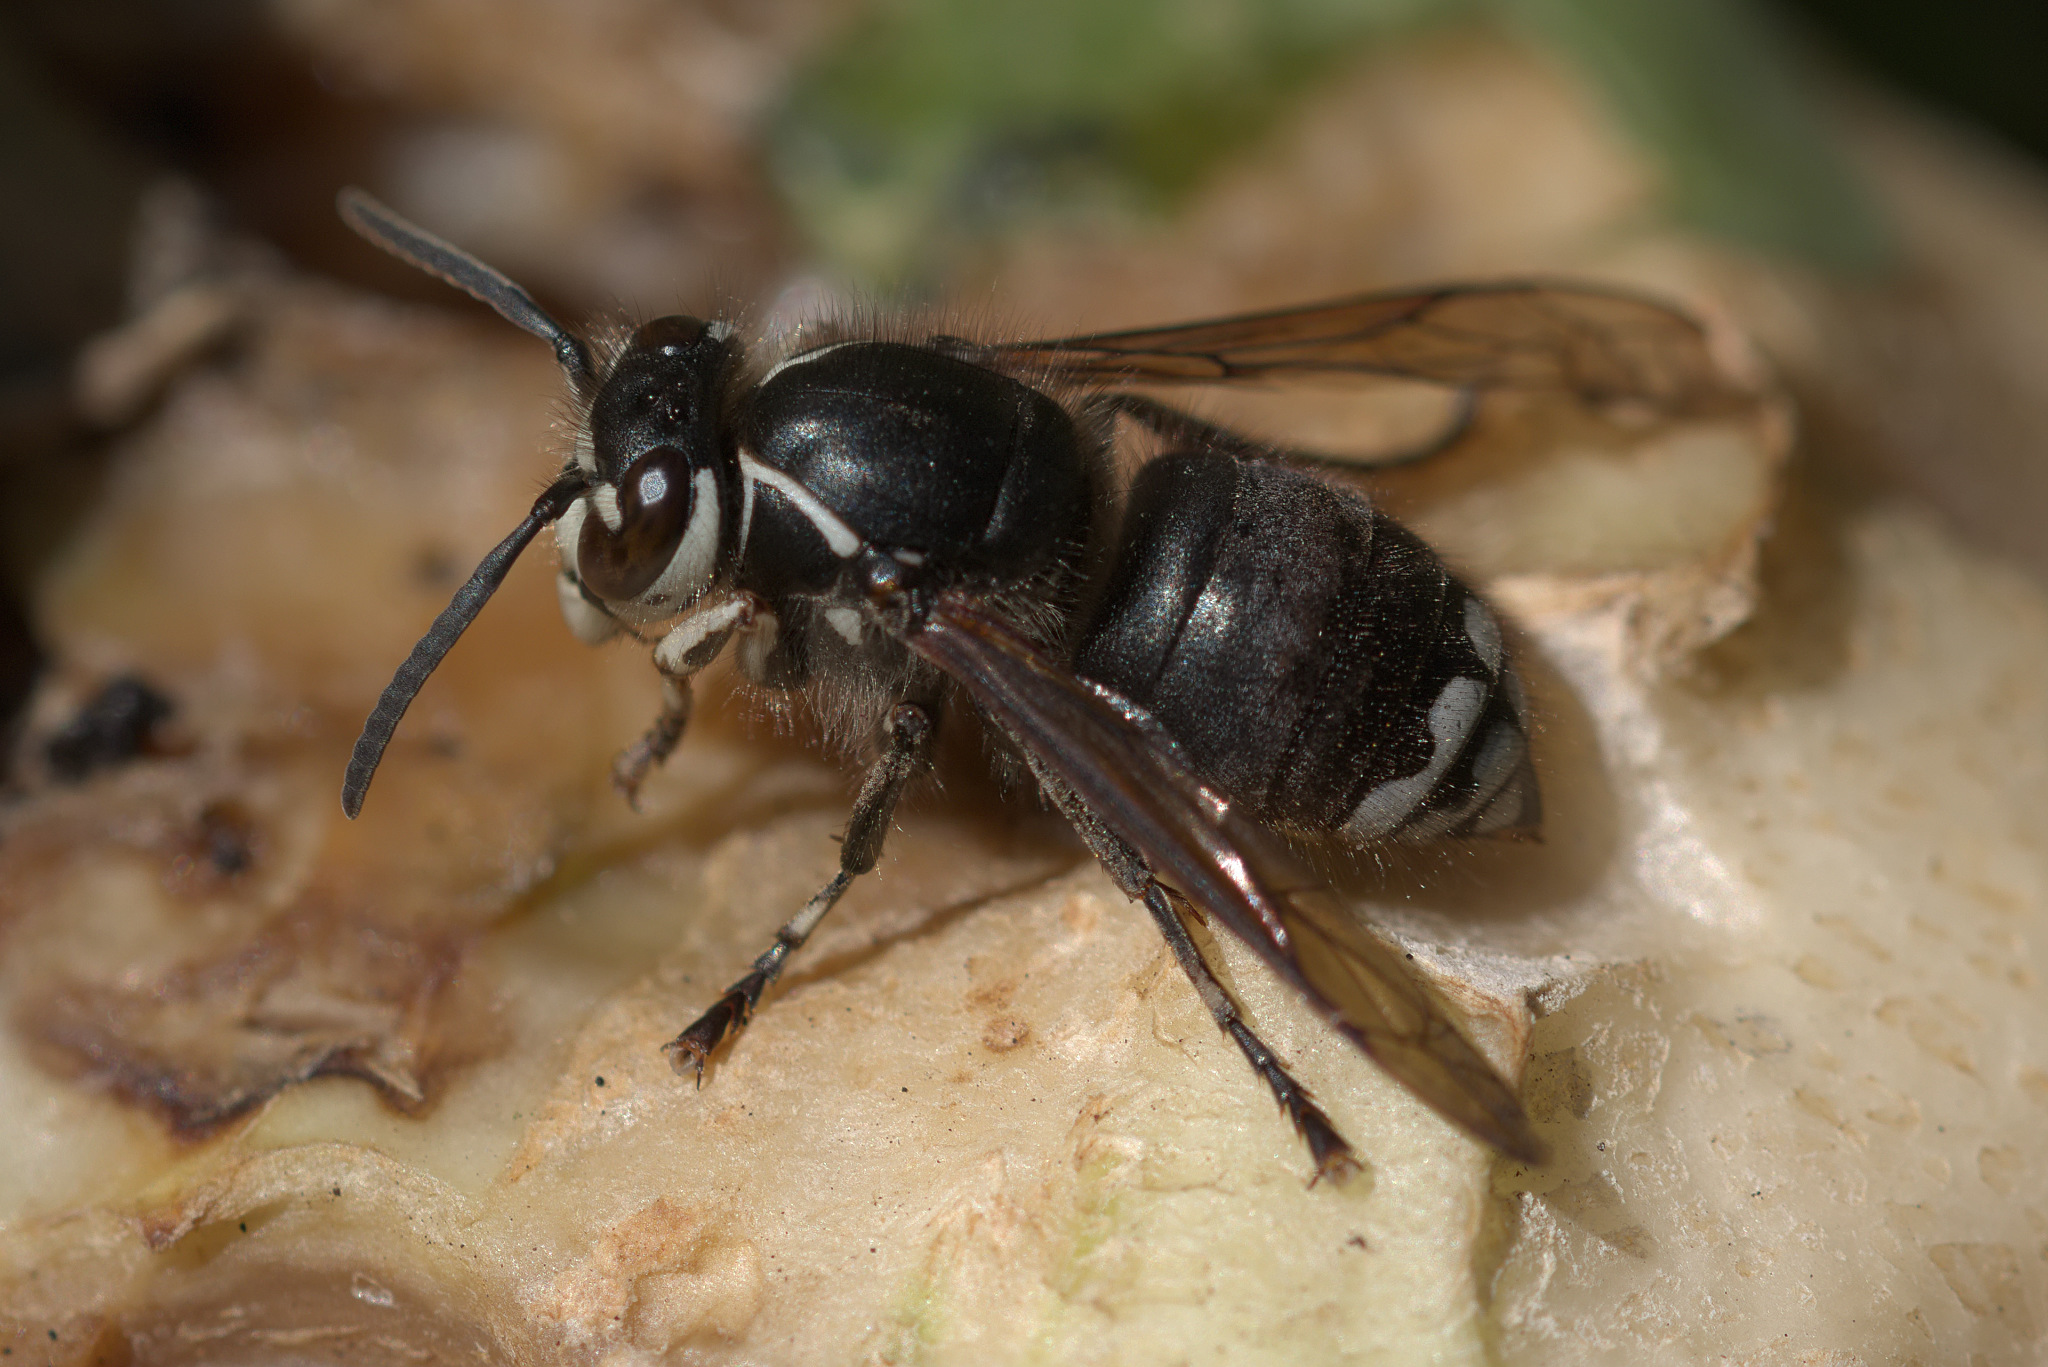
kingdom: Animalia
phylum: Arthropoda
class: Insecta
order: Hymenoptera
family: Vespidae
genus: Dolichovespula
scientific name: Dolichovespula maculata
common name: Bald-faced hornet
